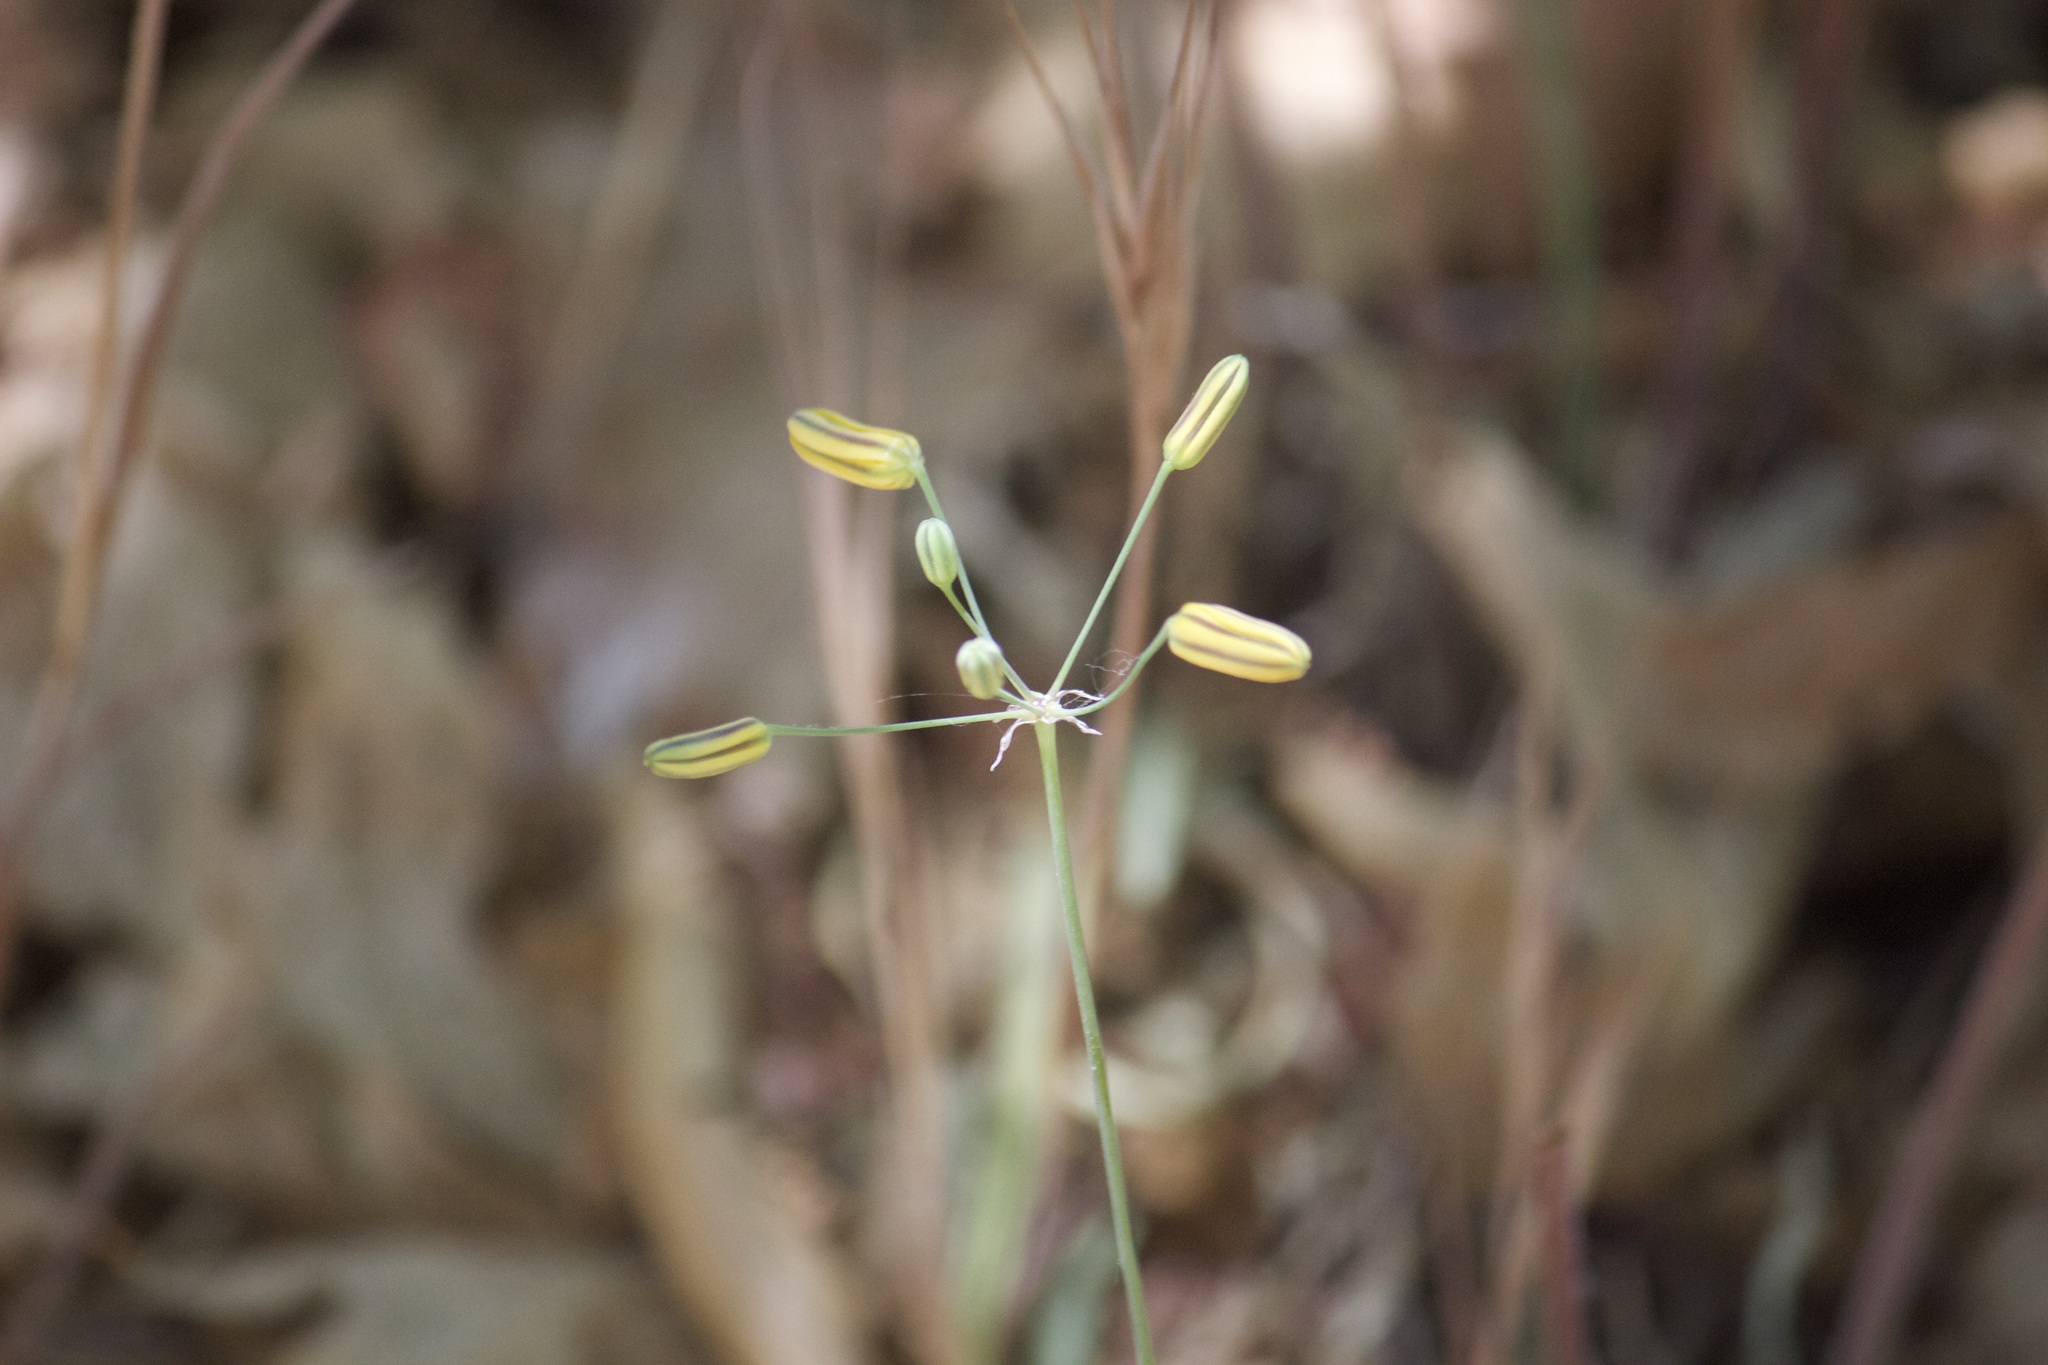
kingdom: Plantae
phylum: Tracheophyta
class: Liliopsida
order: Asparagales
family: Asparagaceae
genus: Bloomeria
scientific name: Bloomeria crocea
